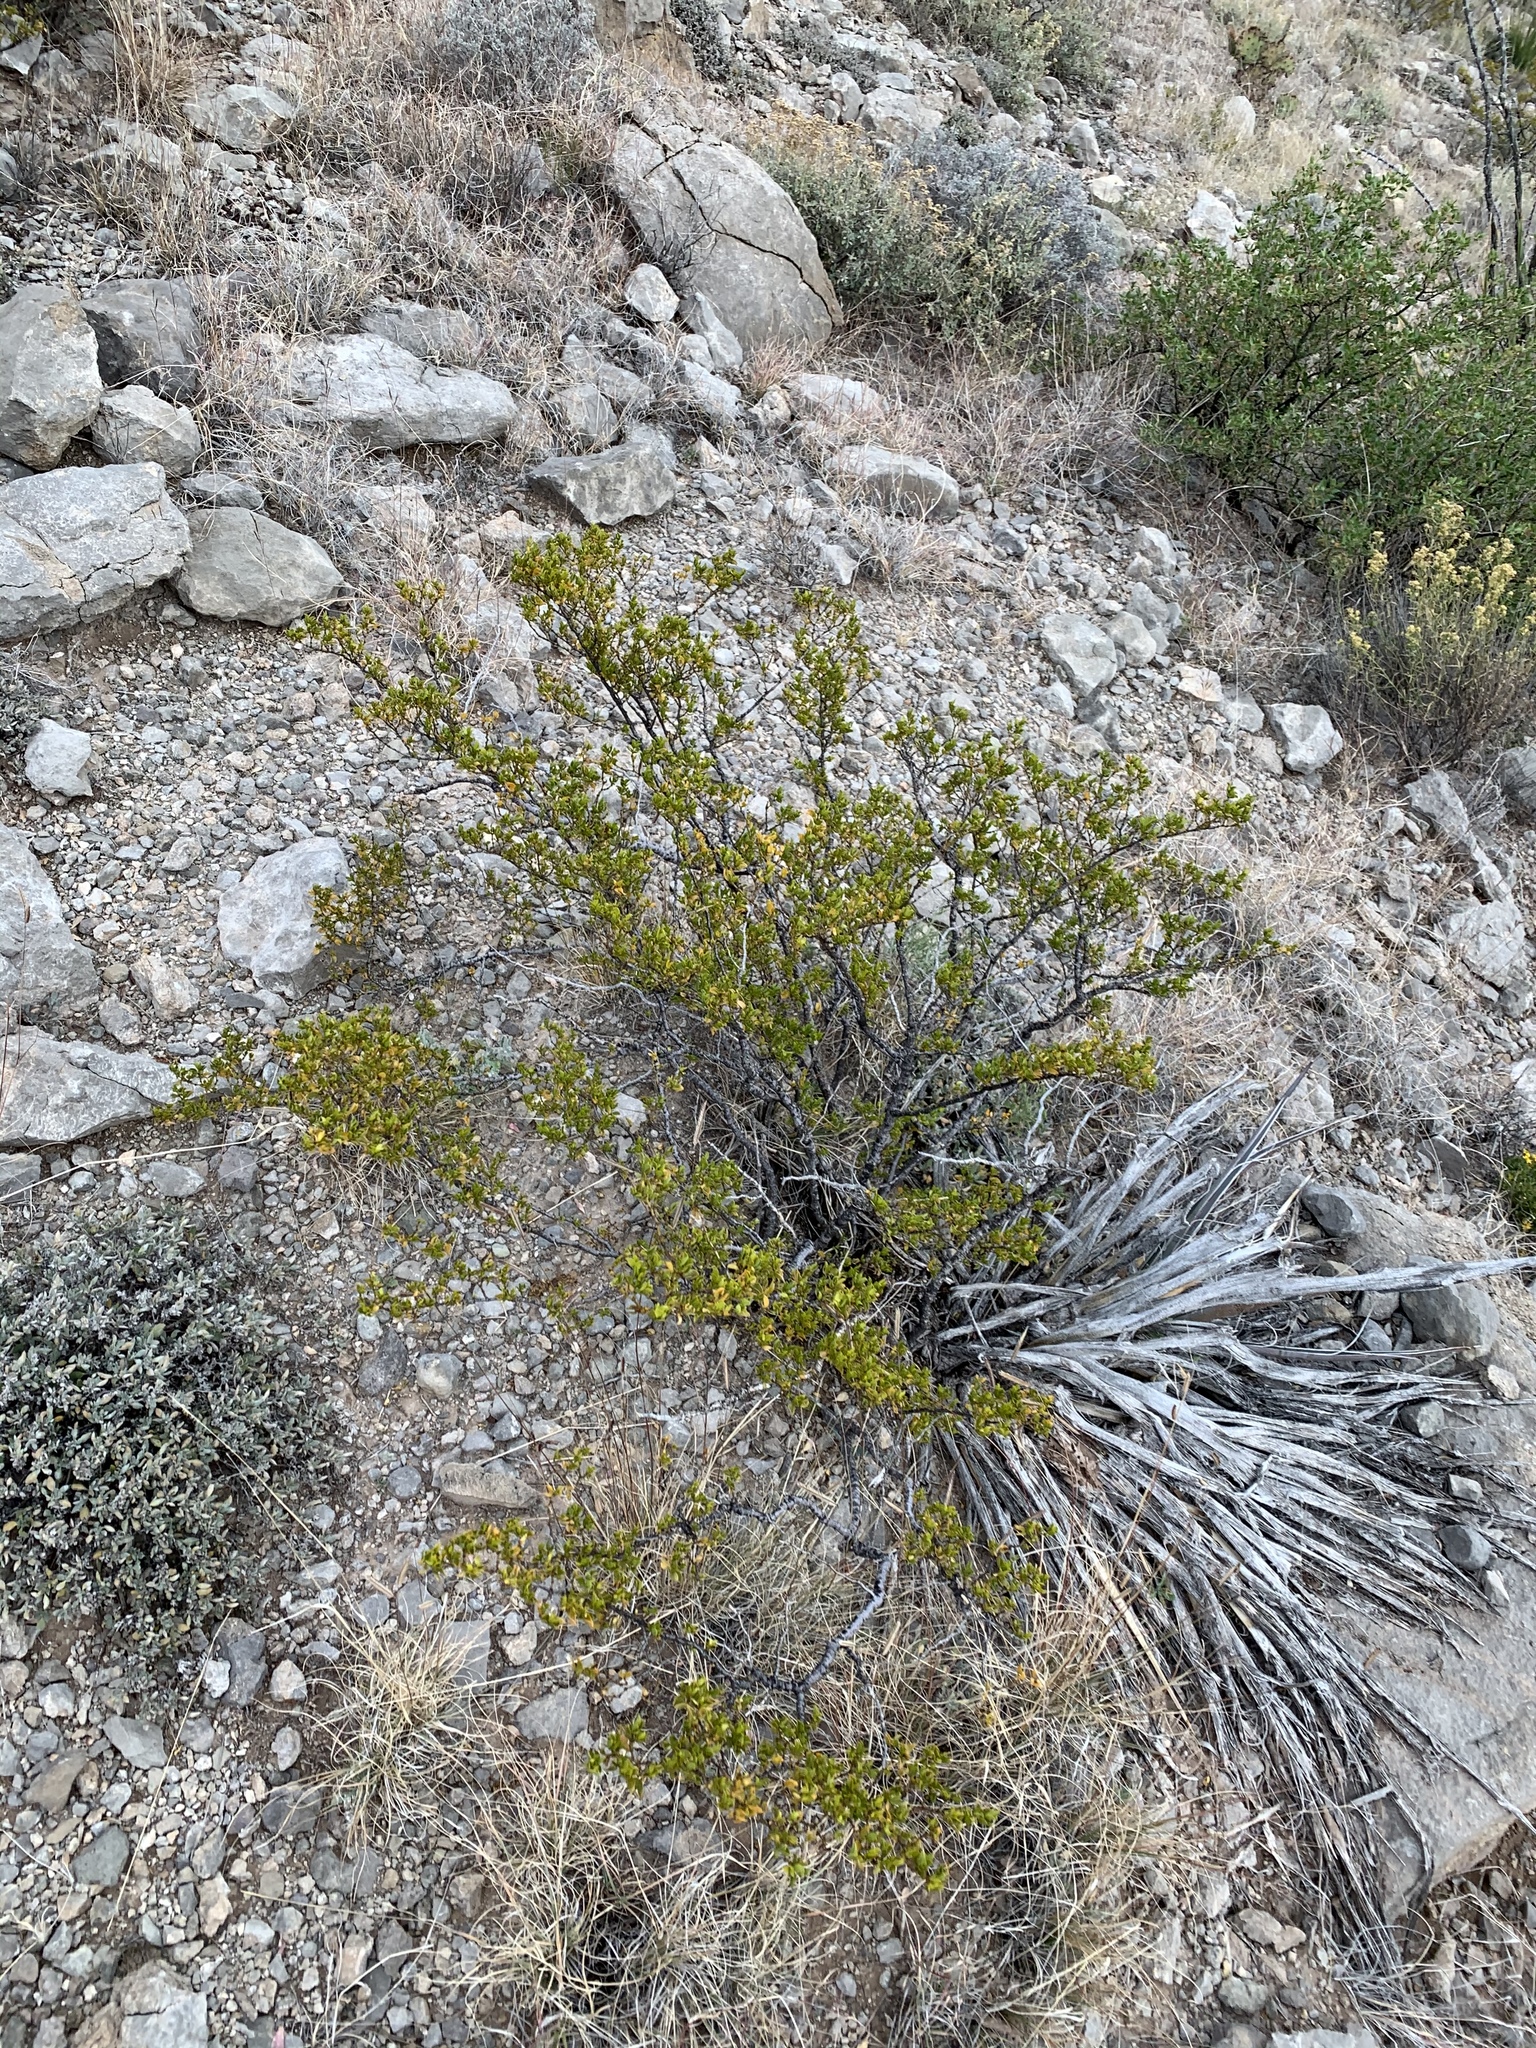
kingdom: Plantae
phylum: Tracheophyta
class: Magnoliopsida
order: Zygophyllales
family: Zygophyllaceae
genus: Larrea
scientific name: Larrea tridentata
